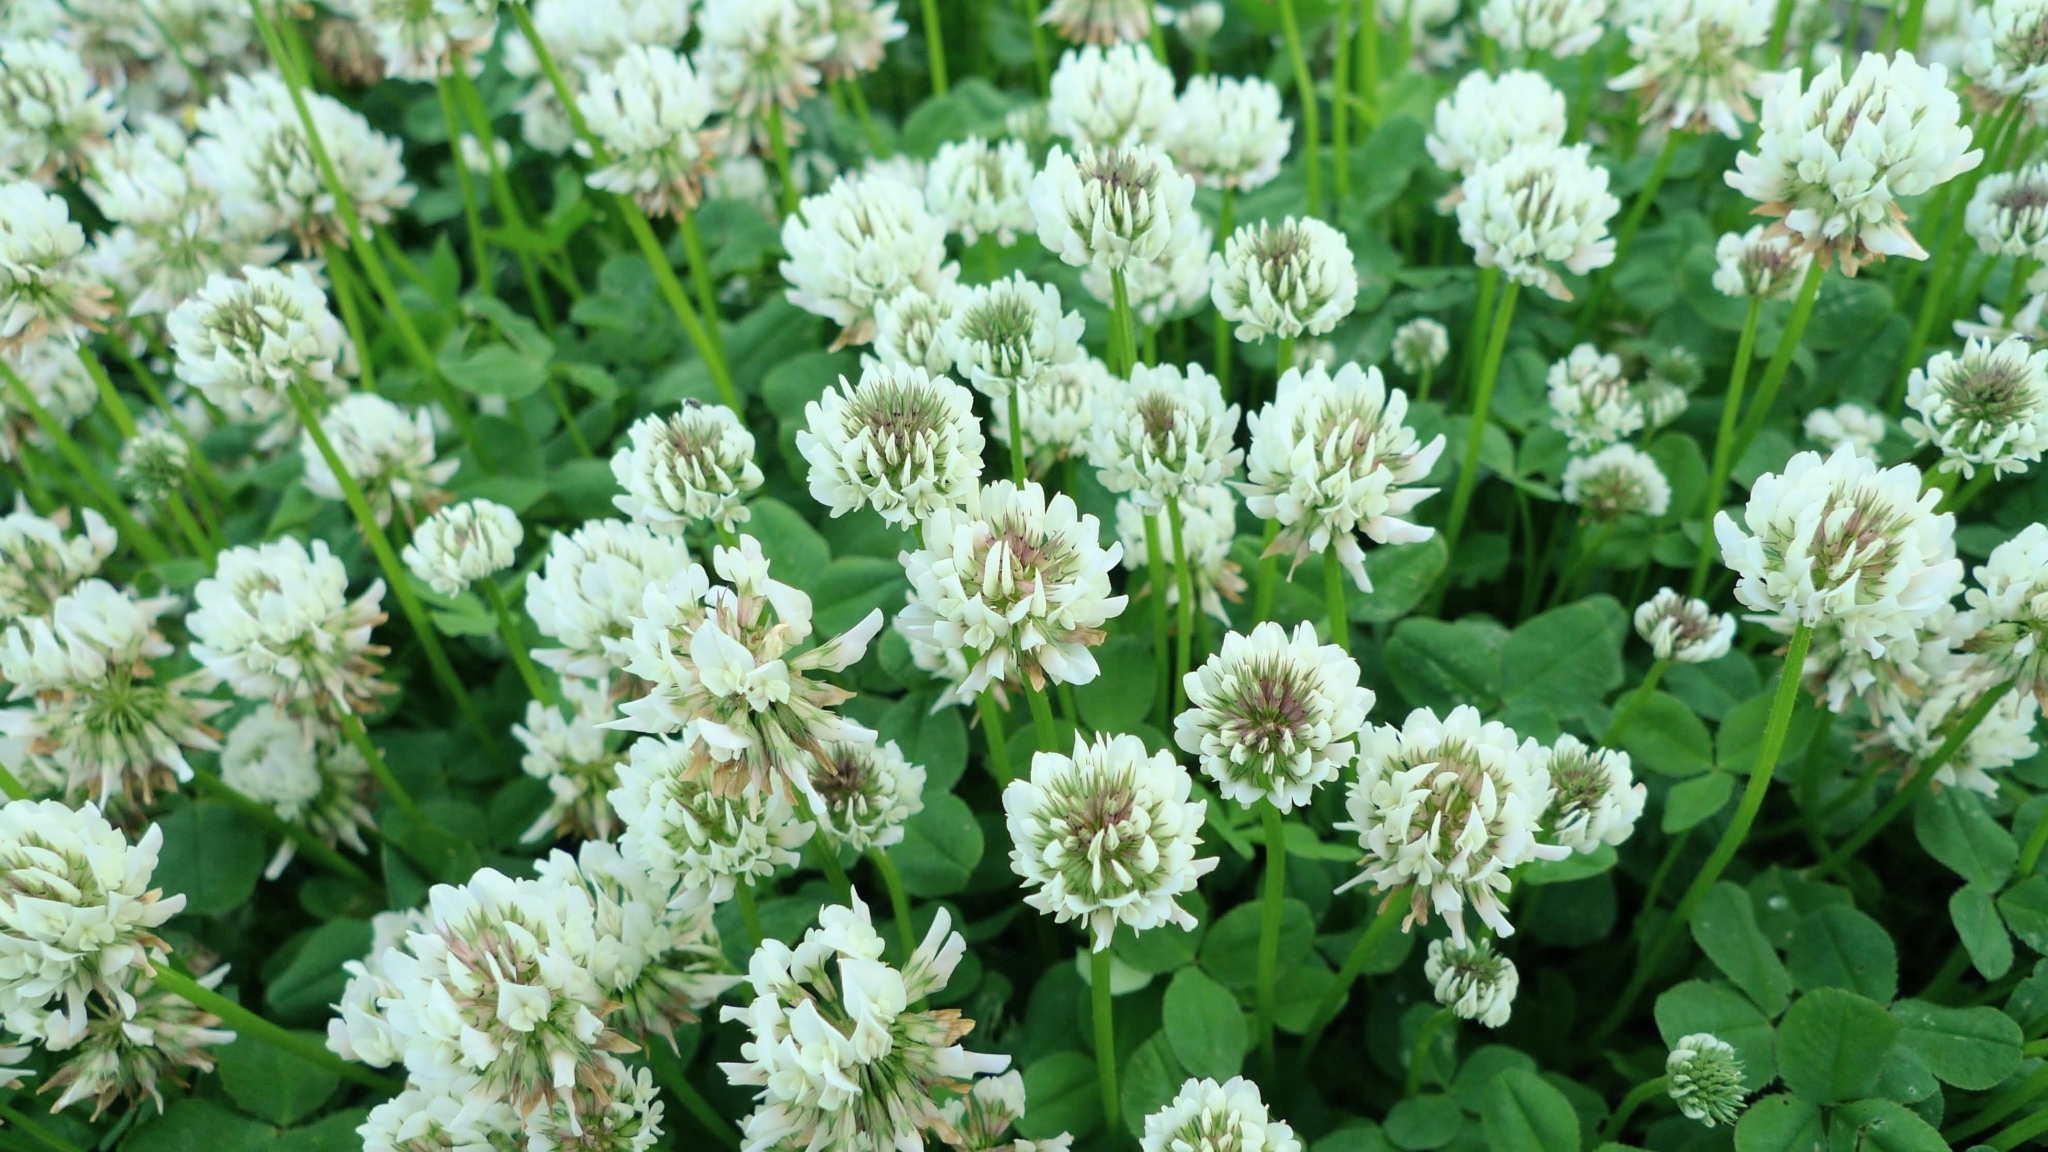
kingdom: Plantae
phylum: Tracheophyta
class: Magnoliopsida
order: Fabales
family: Fabaceae
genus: Trifolium
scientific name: Trifolium repens
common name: White clover
